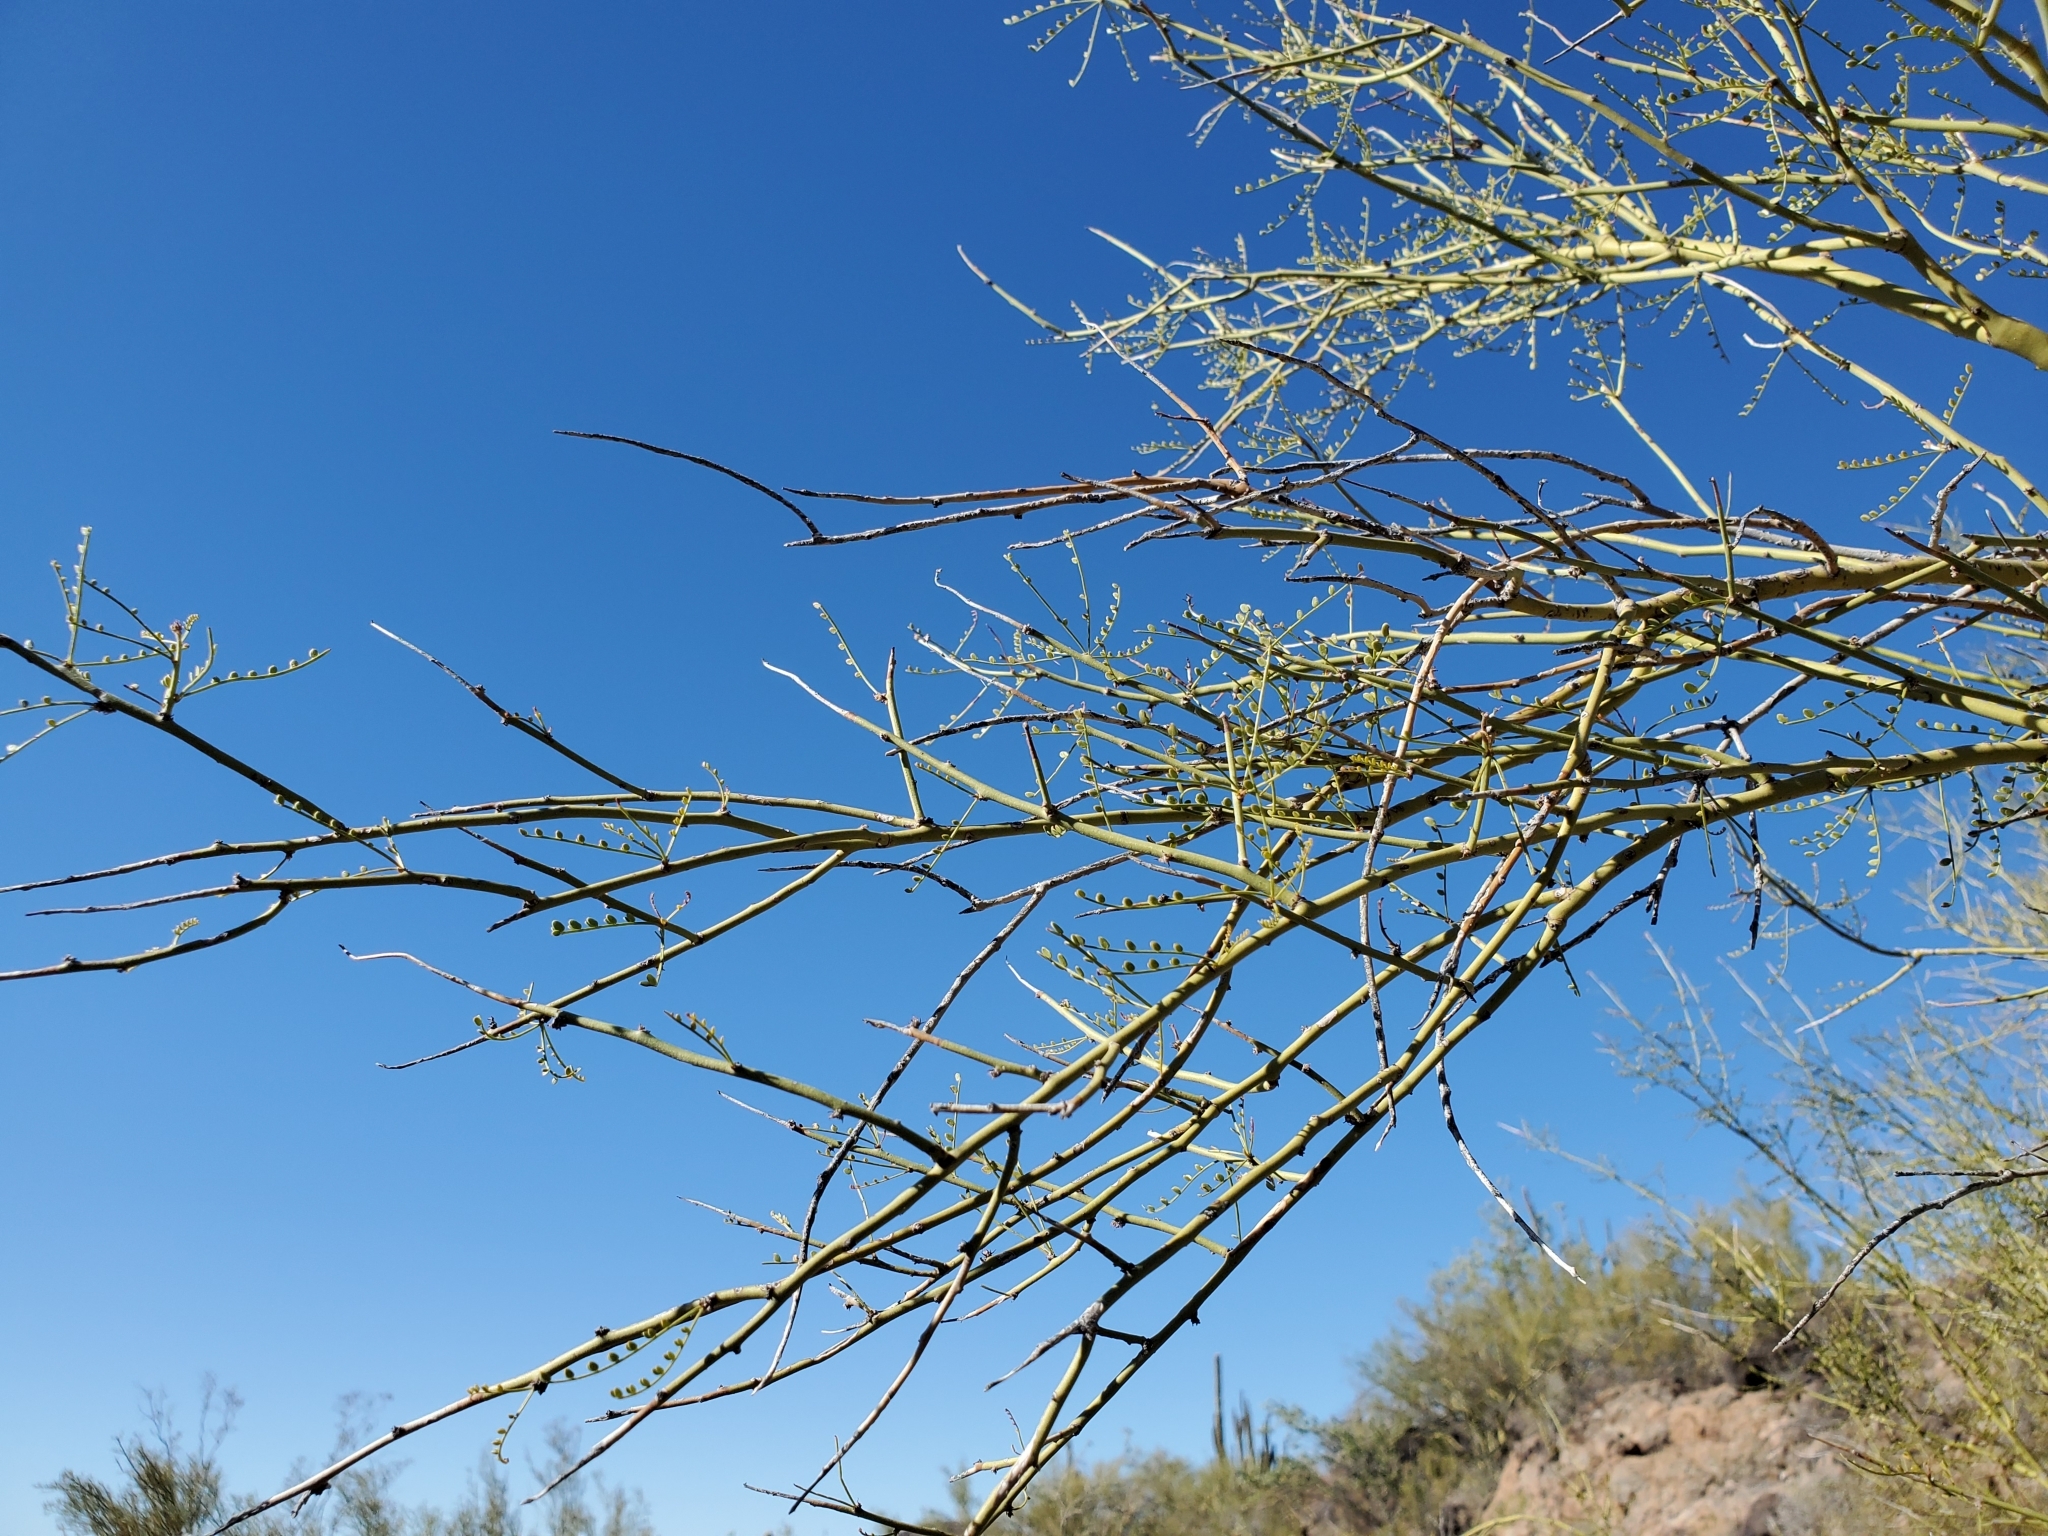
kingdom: Plantae
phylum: Tracheophyta
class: Magnoliopsida
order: Fabales
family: Fabaceae
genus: Parkinsonia
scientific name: Parkinsonia microphylla
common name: Yellow paloverde
